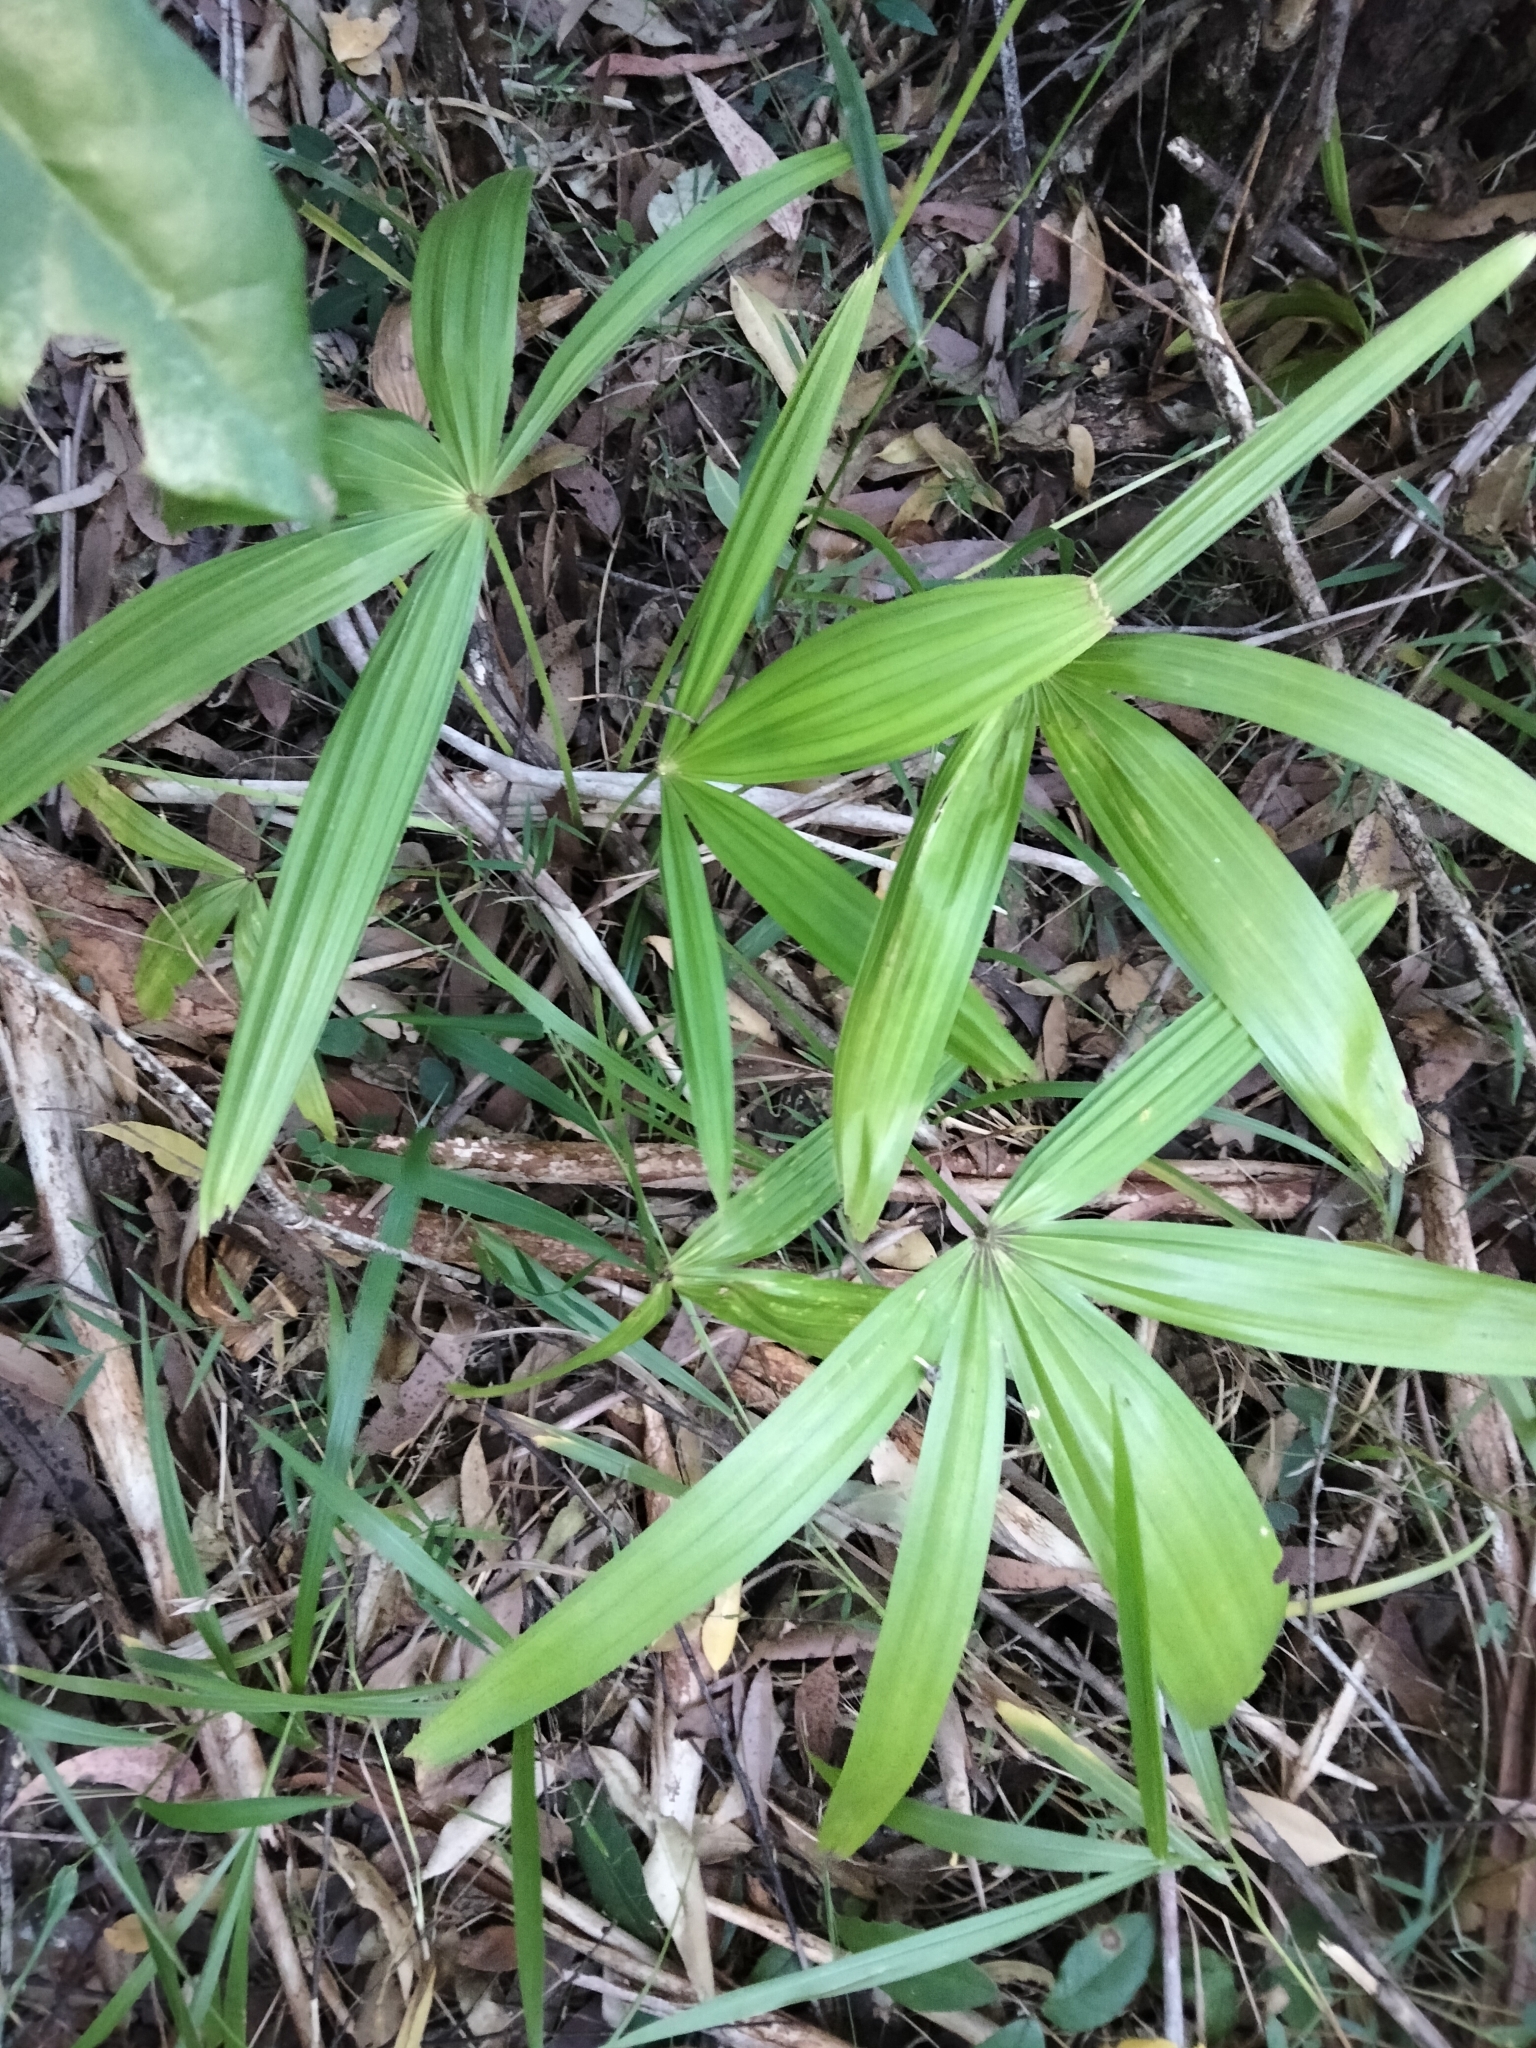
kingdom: Plantae
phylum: Tracheophyta
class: Liliopsida
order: Arecales
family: Arecaceae
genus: Livistona
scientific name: Livistona australis
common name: Cabbage fan palm
